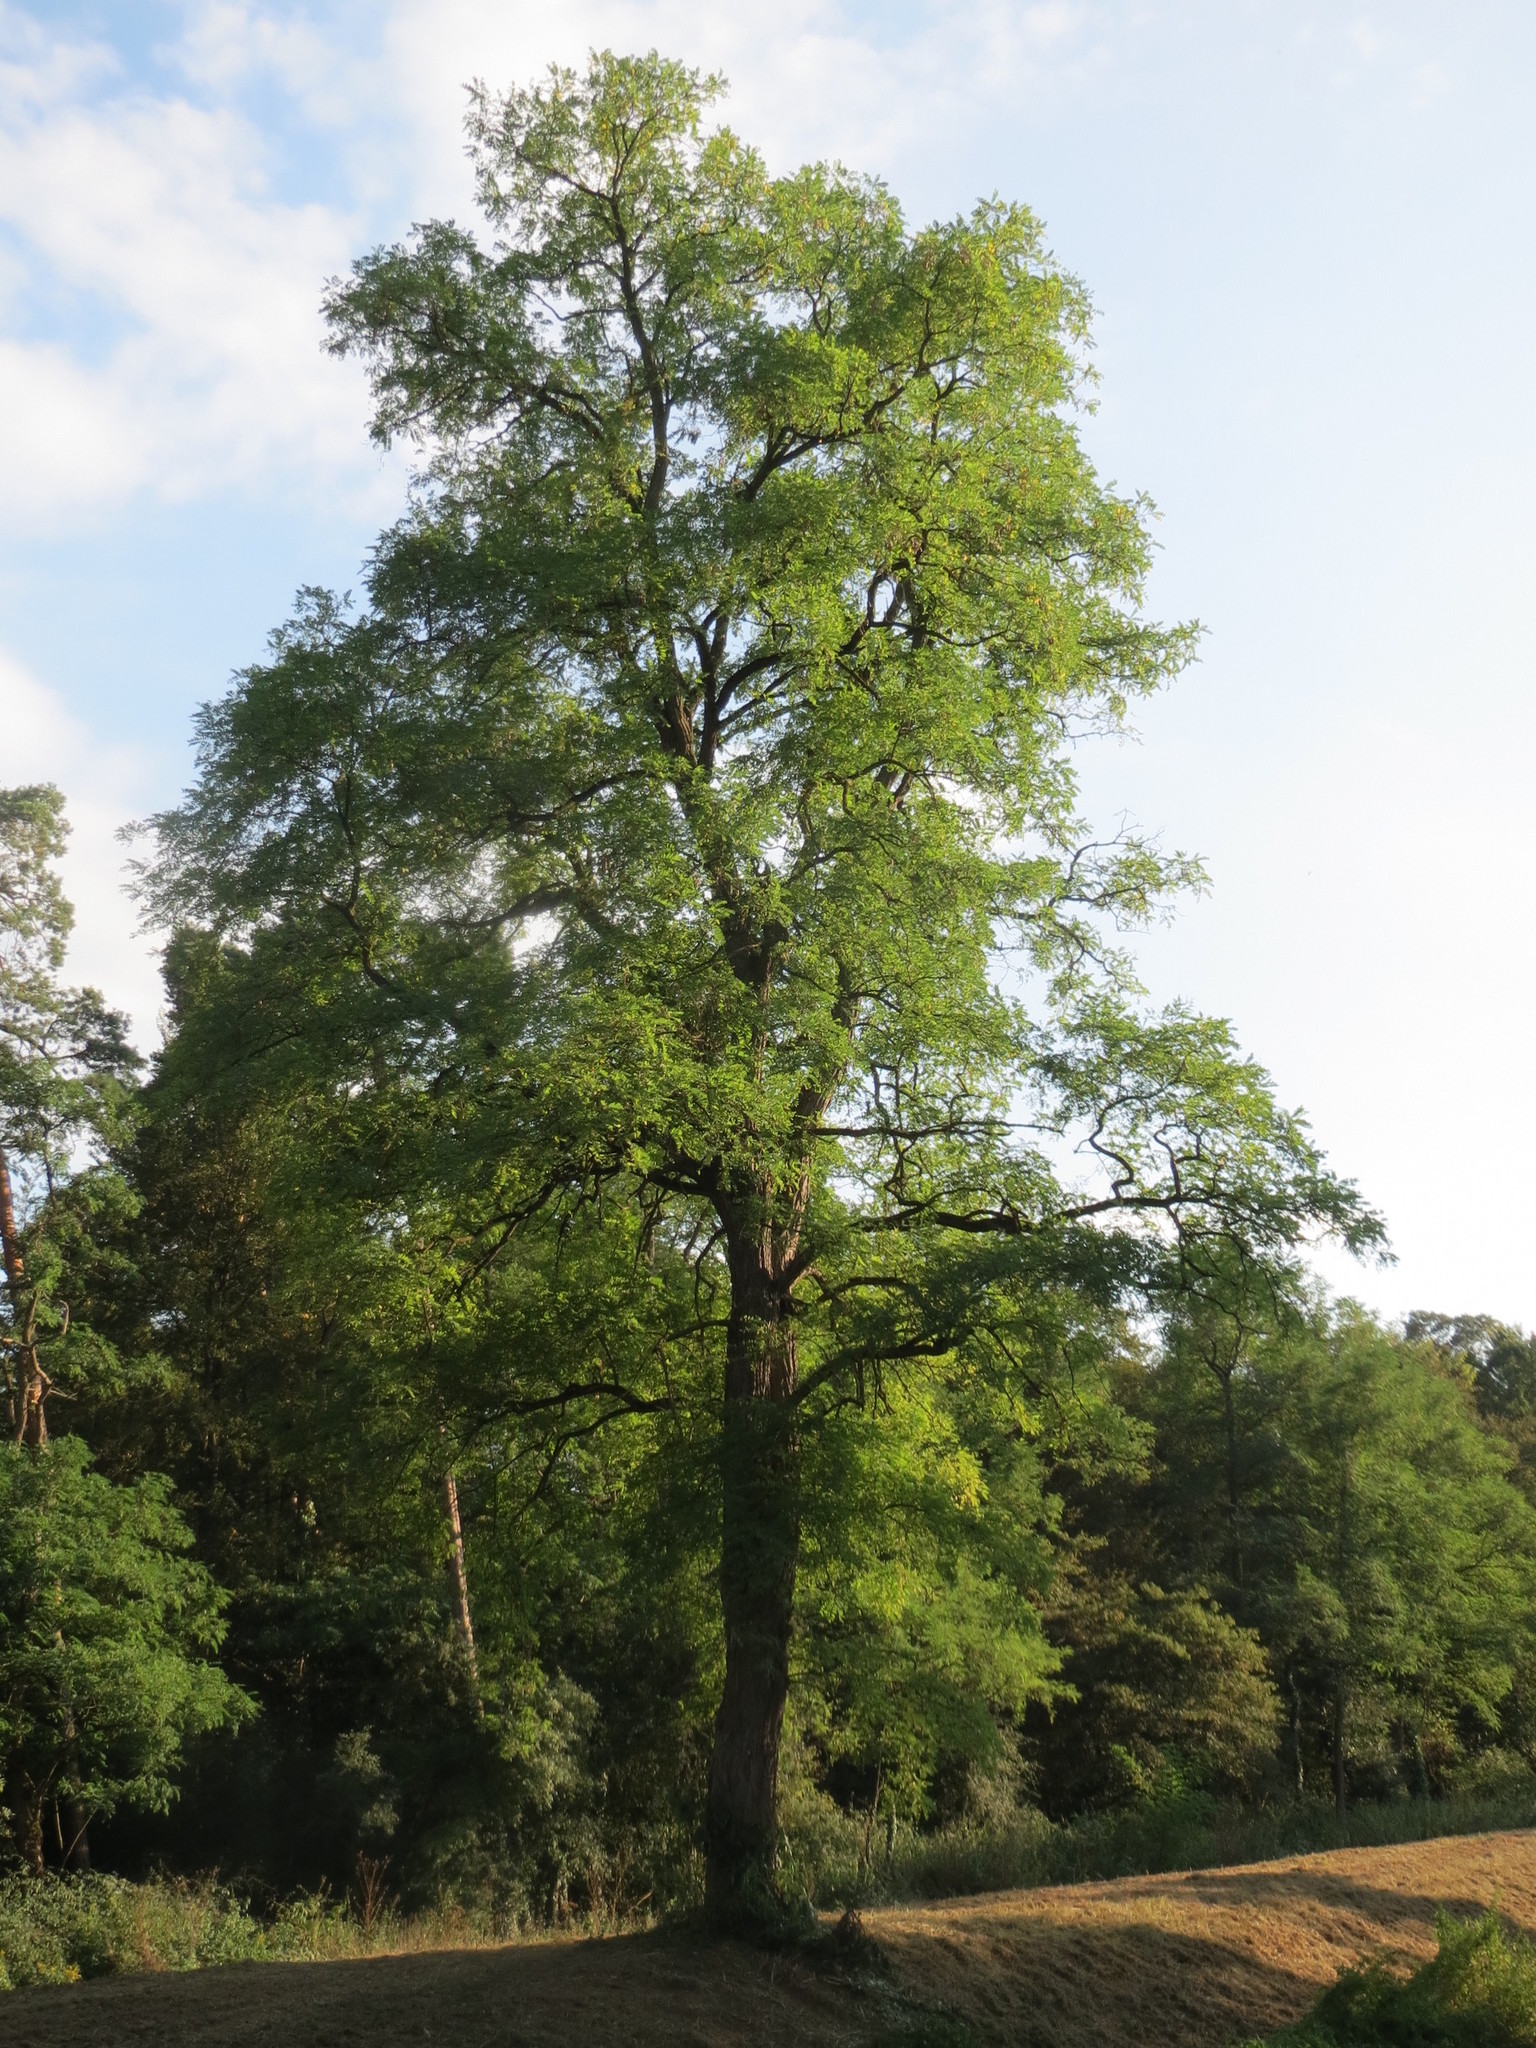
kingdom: Plantae
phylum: Tracheophyta
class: Magnoliopsida
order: Fabales
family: Fabaceae
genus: Robinia
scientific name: Robinia pseudoacacia
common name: Black locust
